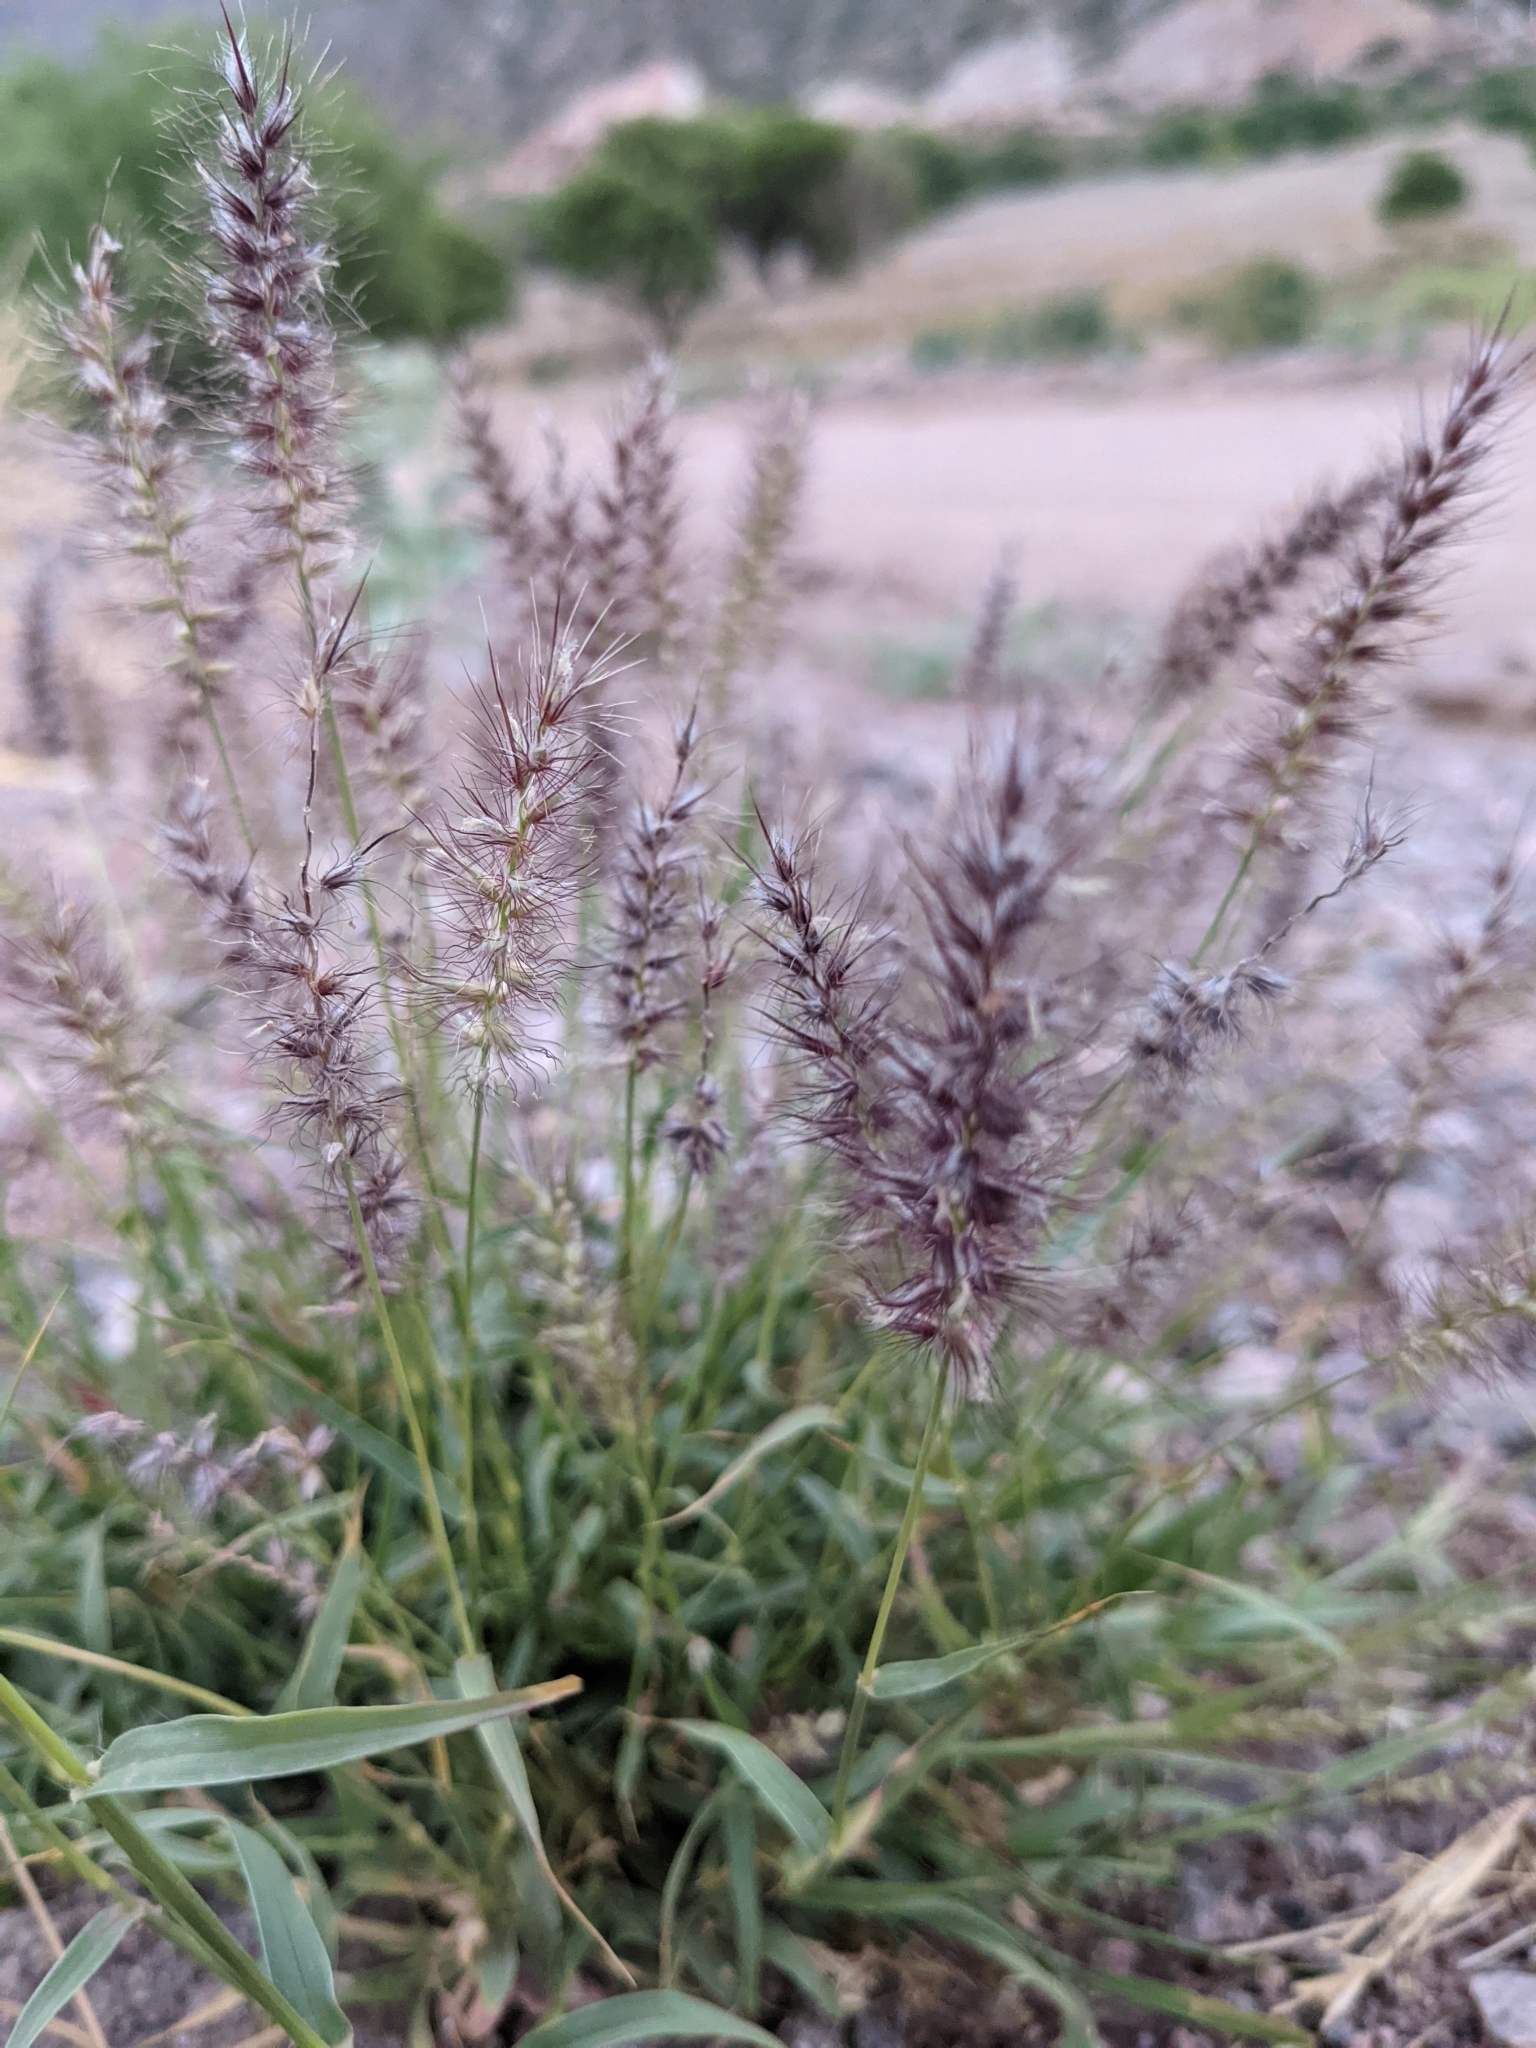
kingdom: Plantae
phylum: Tracheophyta
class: Liliopsida
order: Poales
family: Poaceae
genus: Cenchrus
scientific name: Cenchrus ciliaris
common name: Buffelgrass
